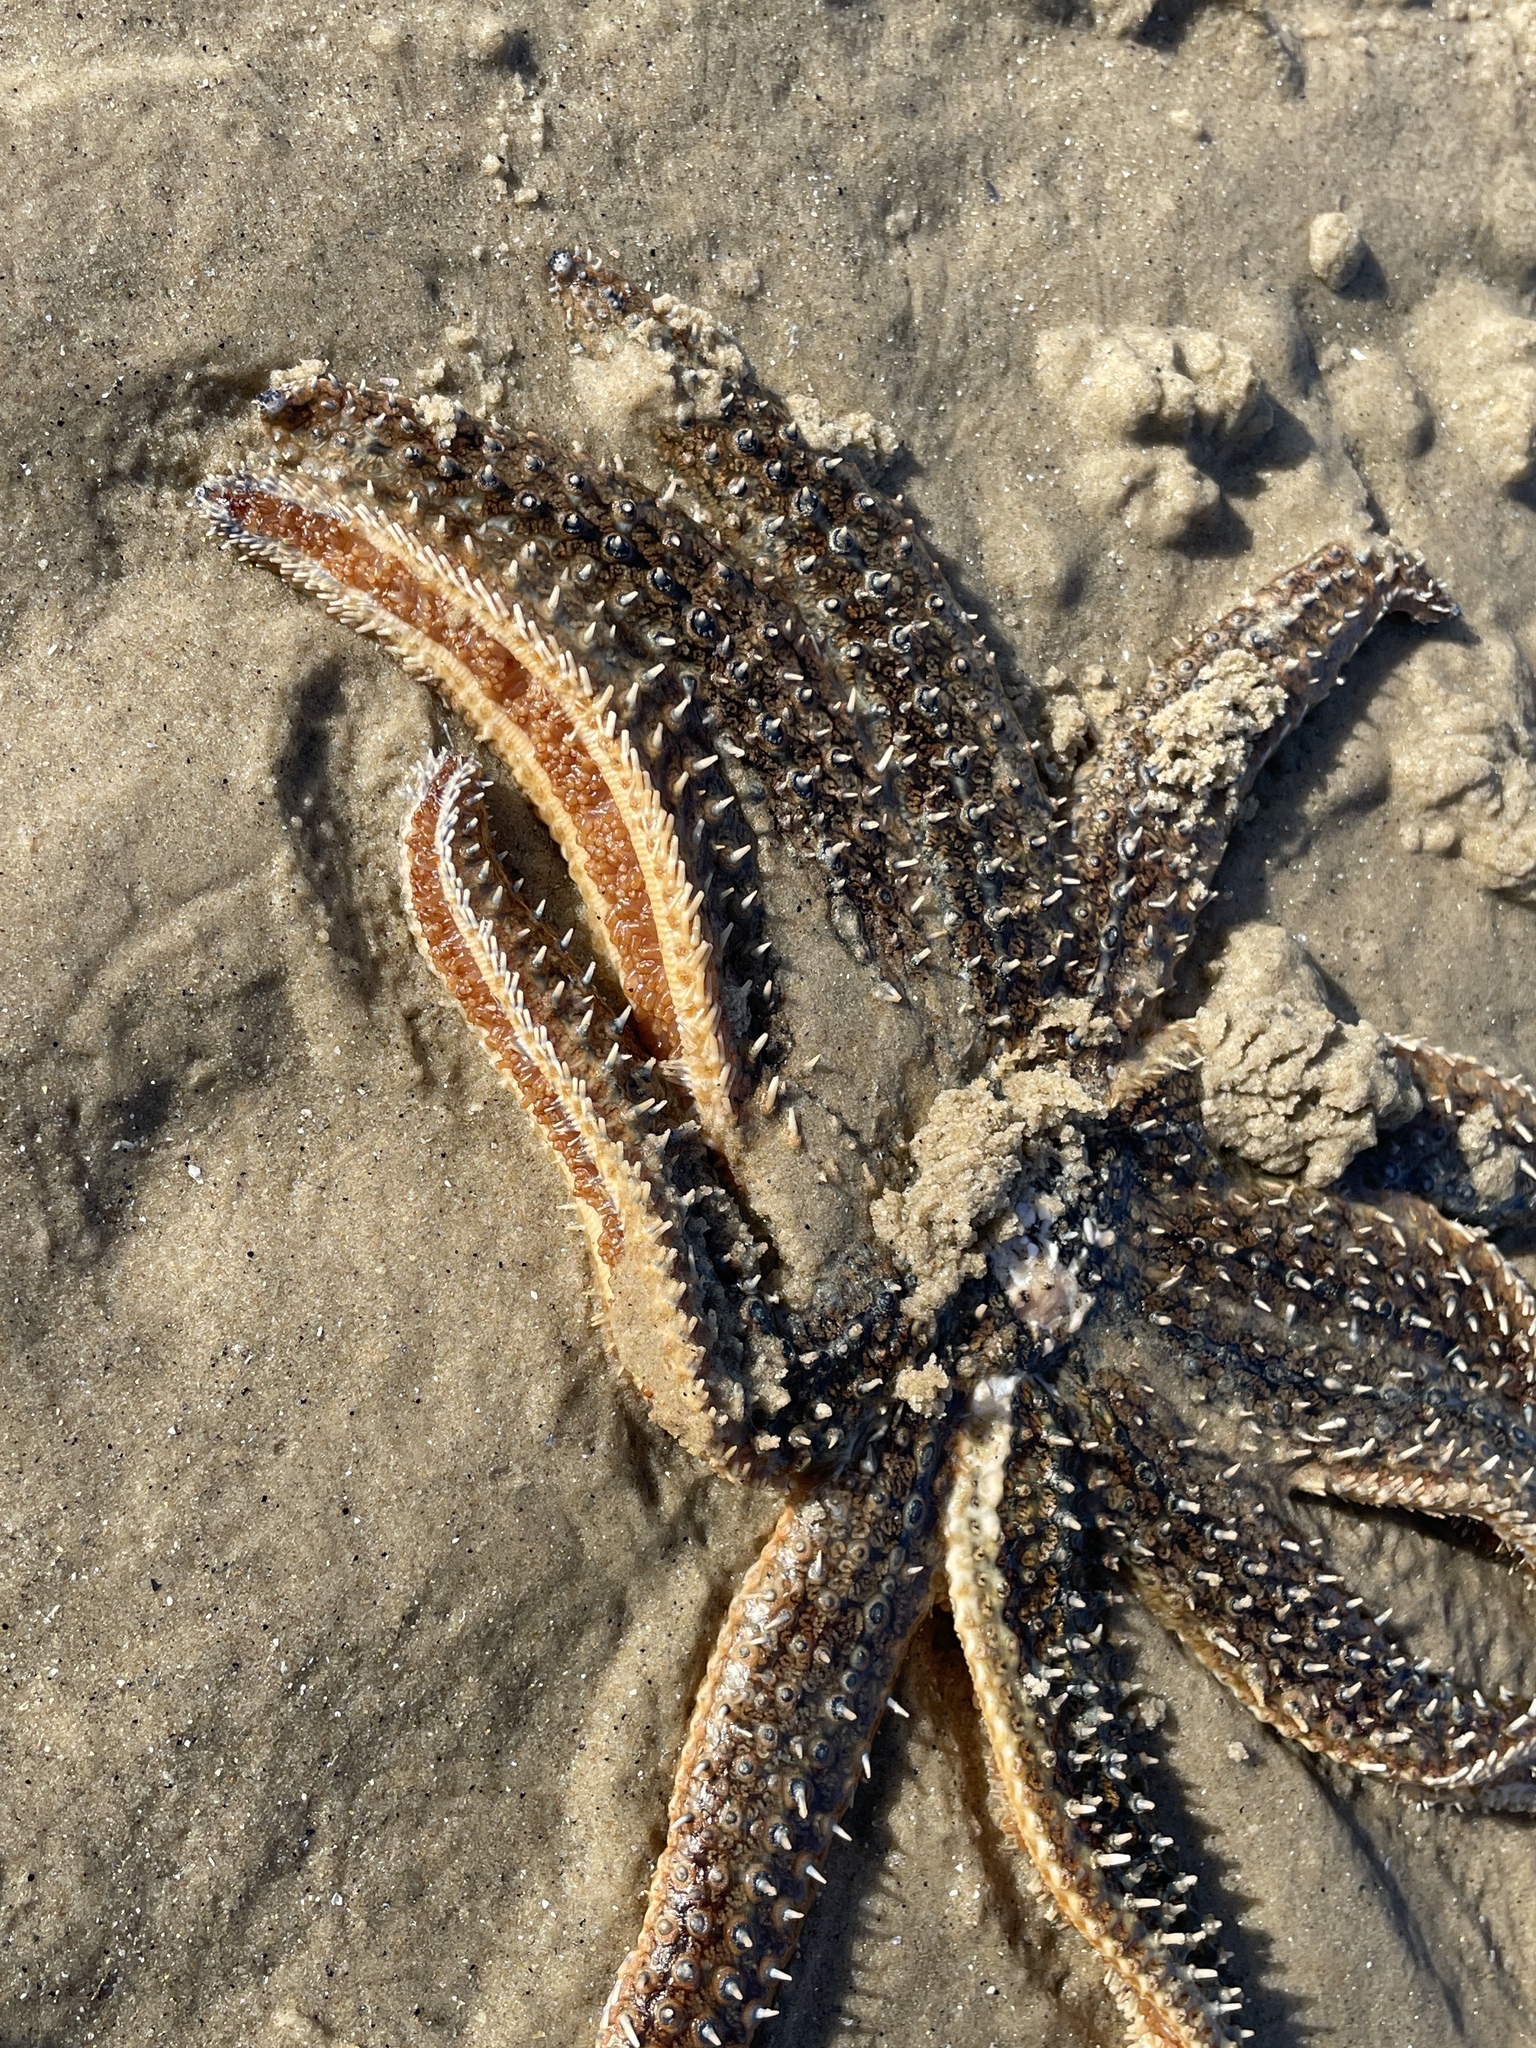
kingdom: Animalia
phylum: Echinodermata
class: Asteroidea
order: Forcipulatida
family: Asteriidae
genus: Coscinasterias
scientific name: Coscinasterias muricata
